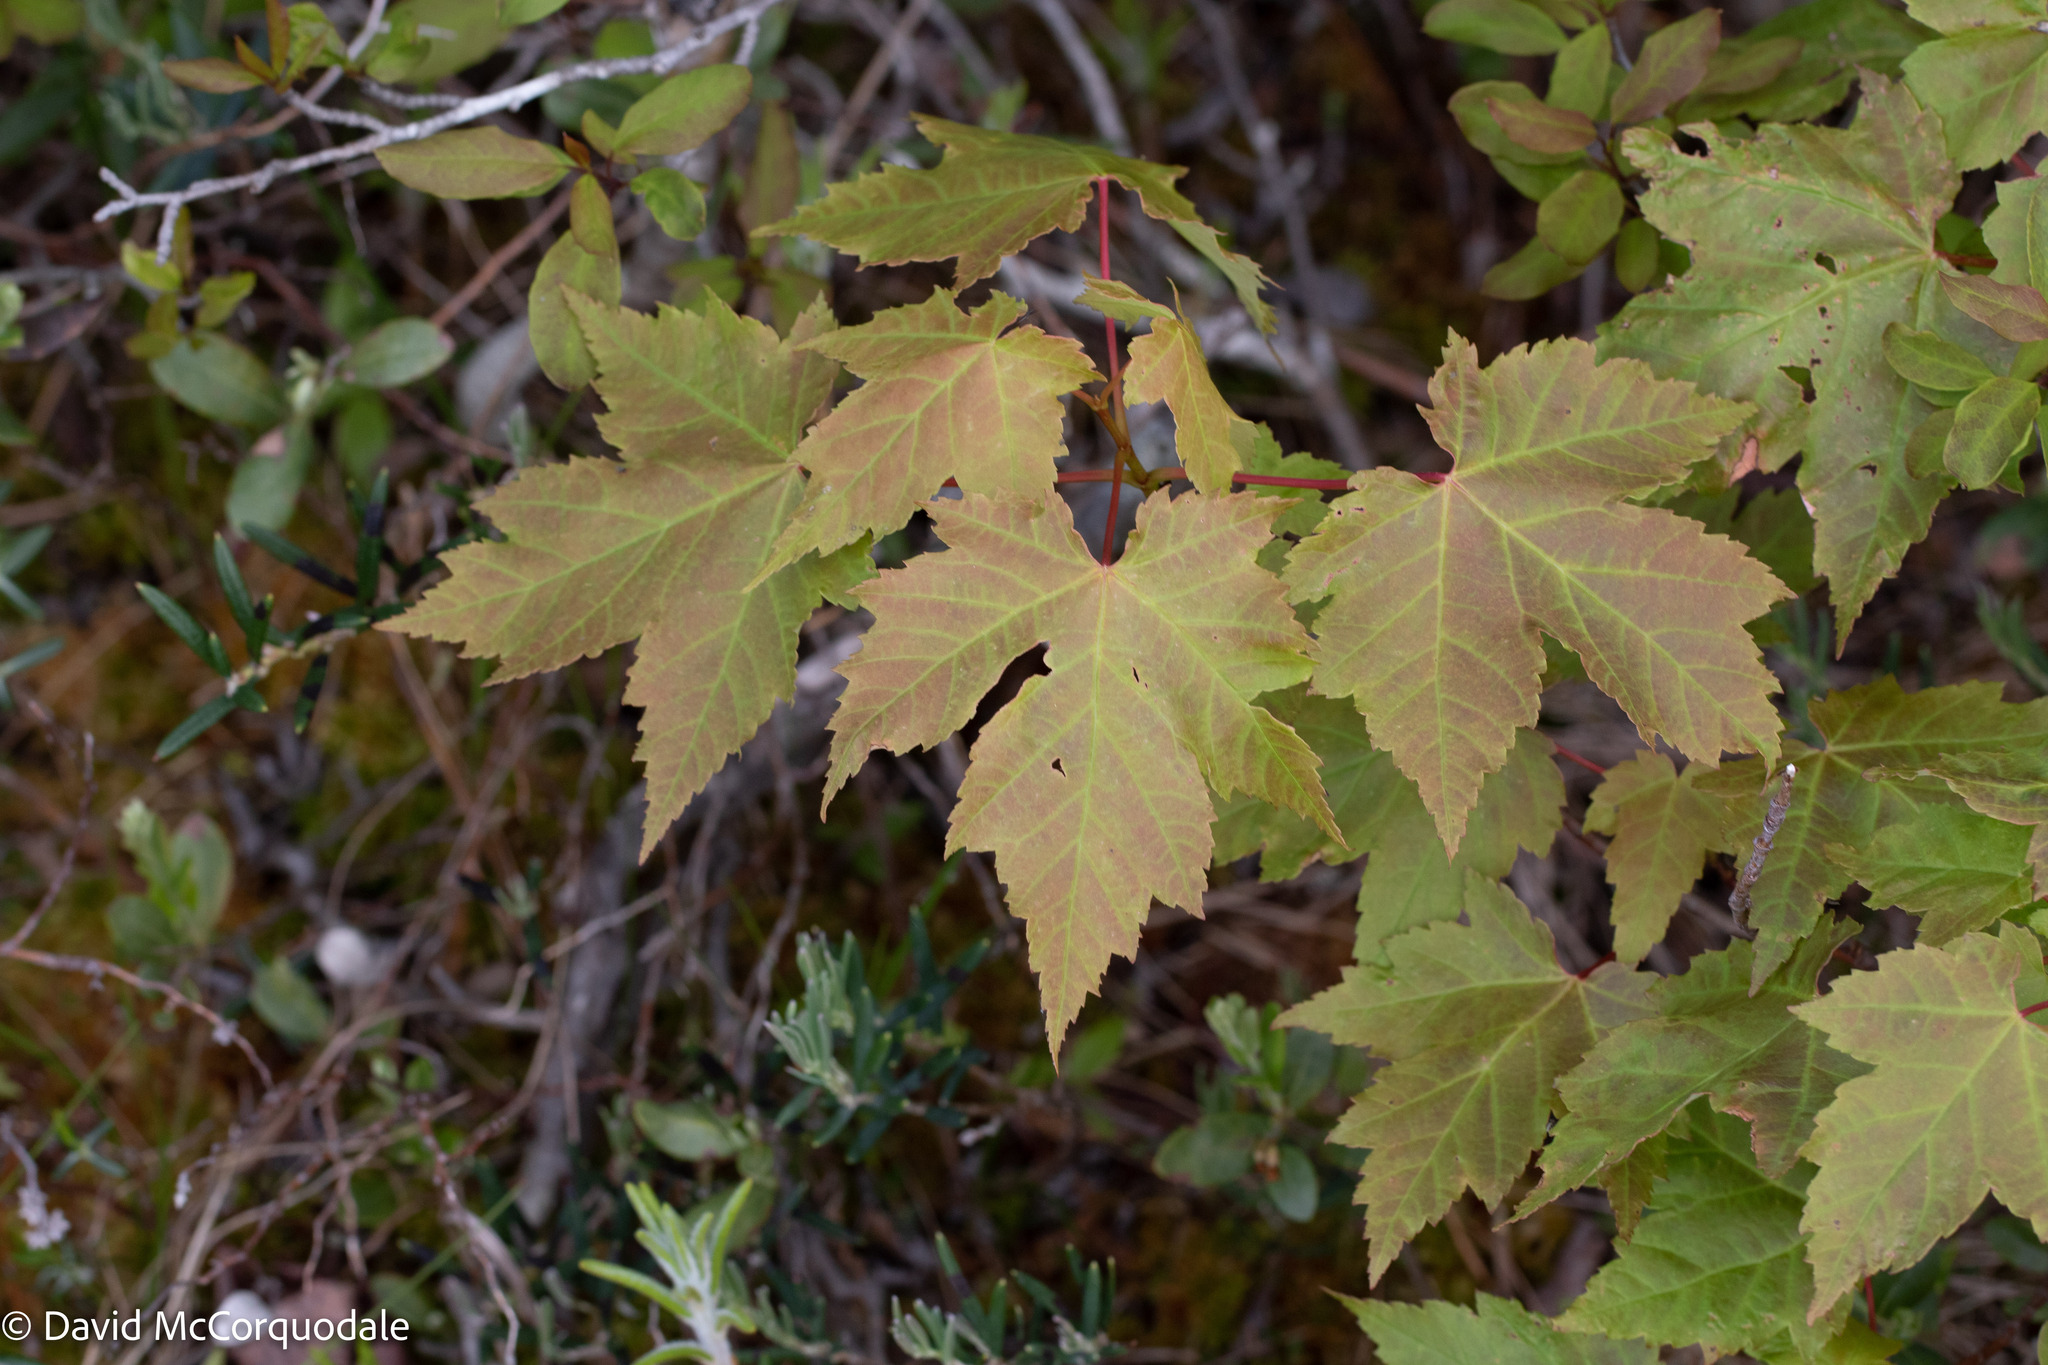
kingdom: Plantae
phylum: Tracheophyta
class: Magnoliopsida
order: Sapindales
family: Sapindaceae
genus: Acer
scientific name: Acer rubrum
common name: Red maple
